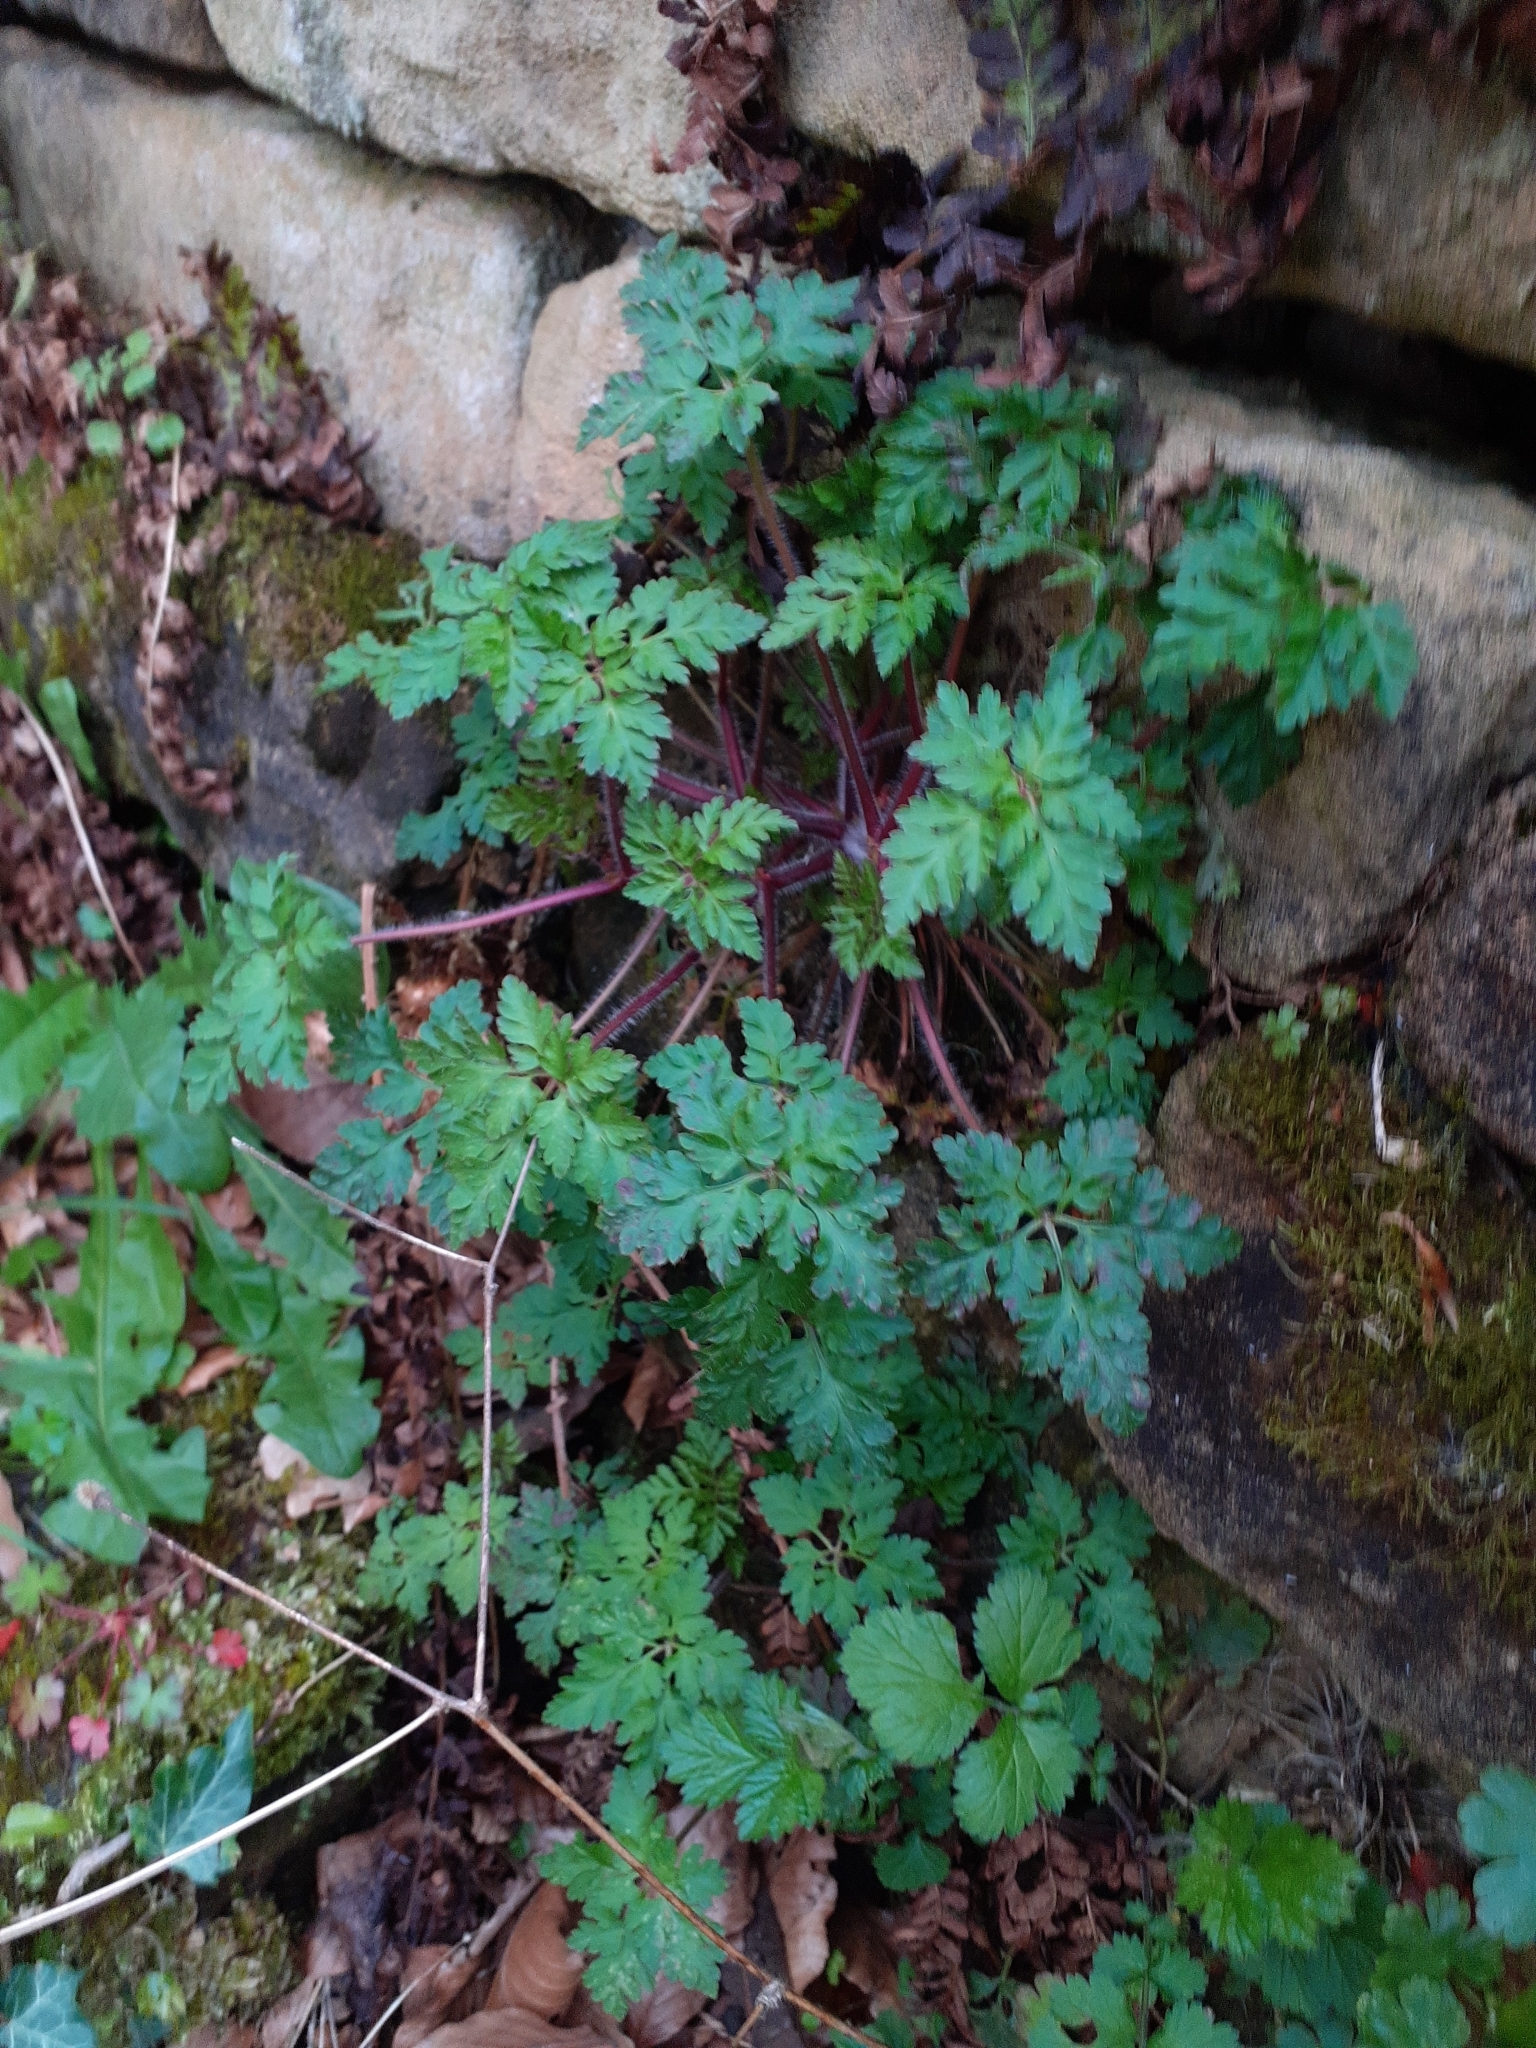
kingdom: Plantae
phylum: Tracheophyta
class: Magnoliopsida
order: Geraniales
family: Geraniaceae
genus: Geranium
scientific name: Geranium robertianum
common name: Herb-robert
